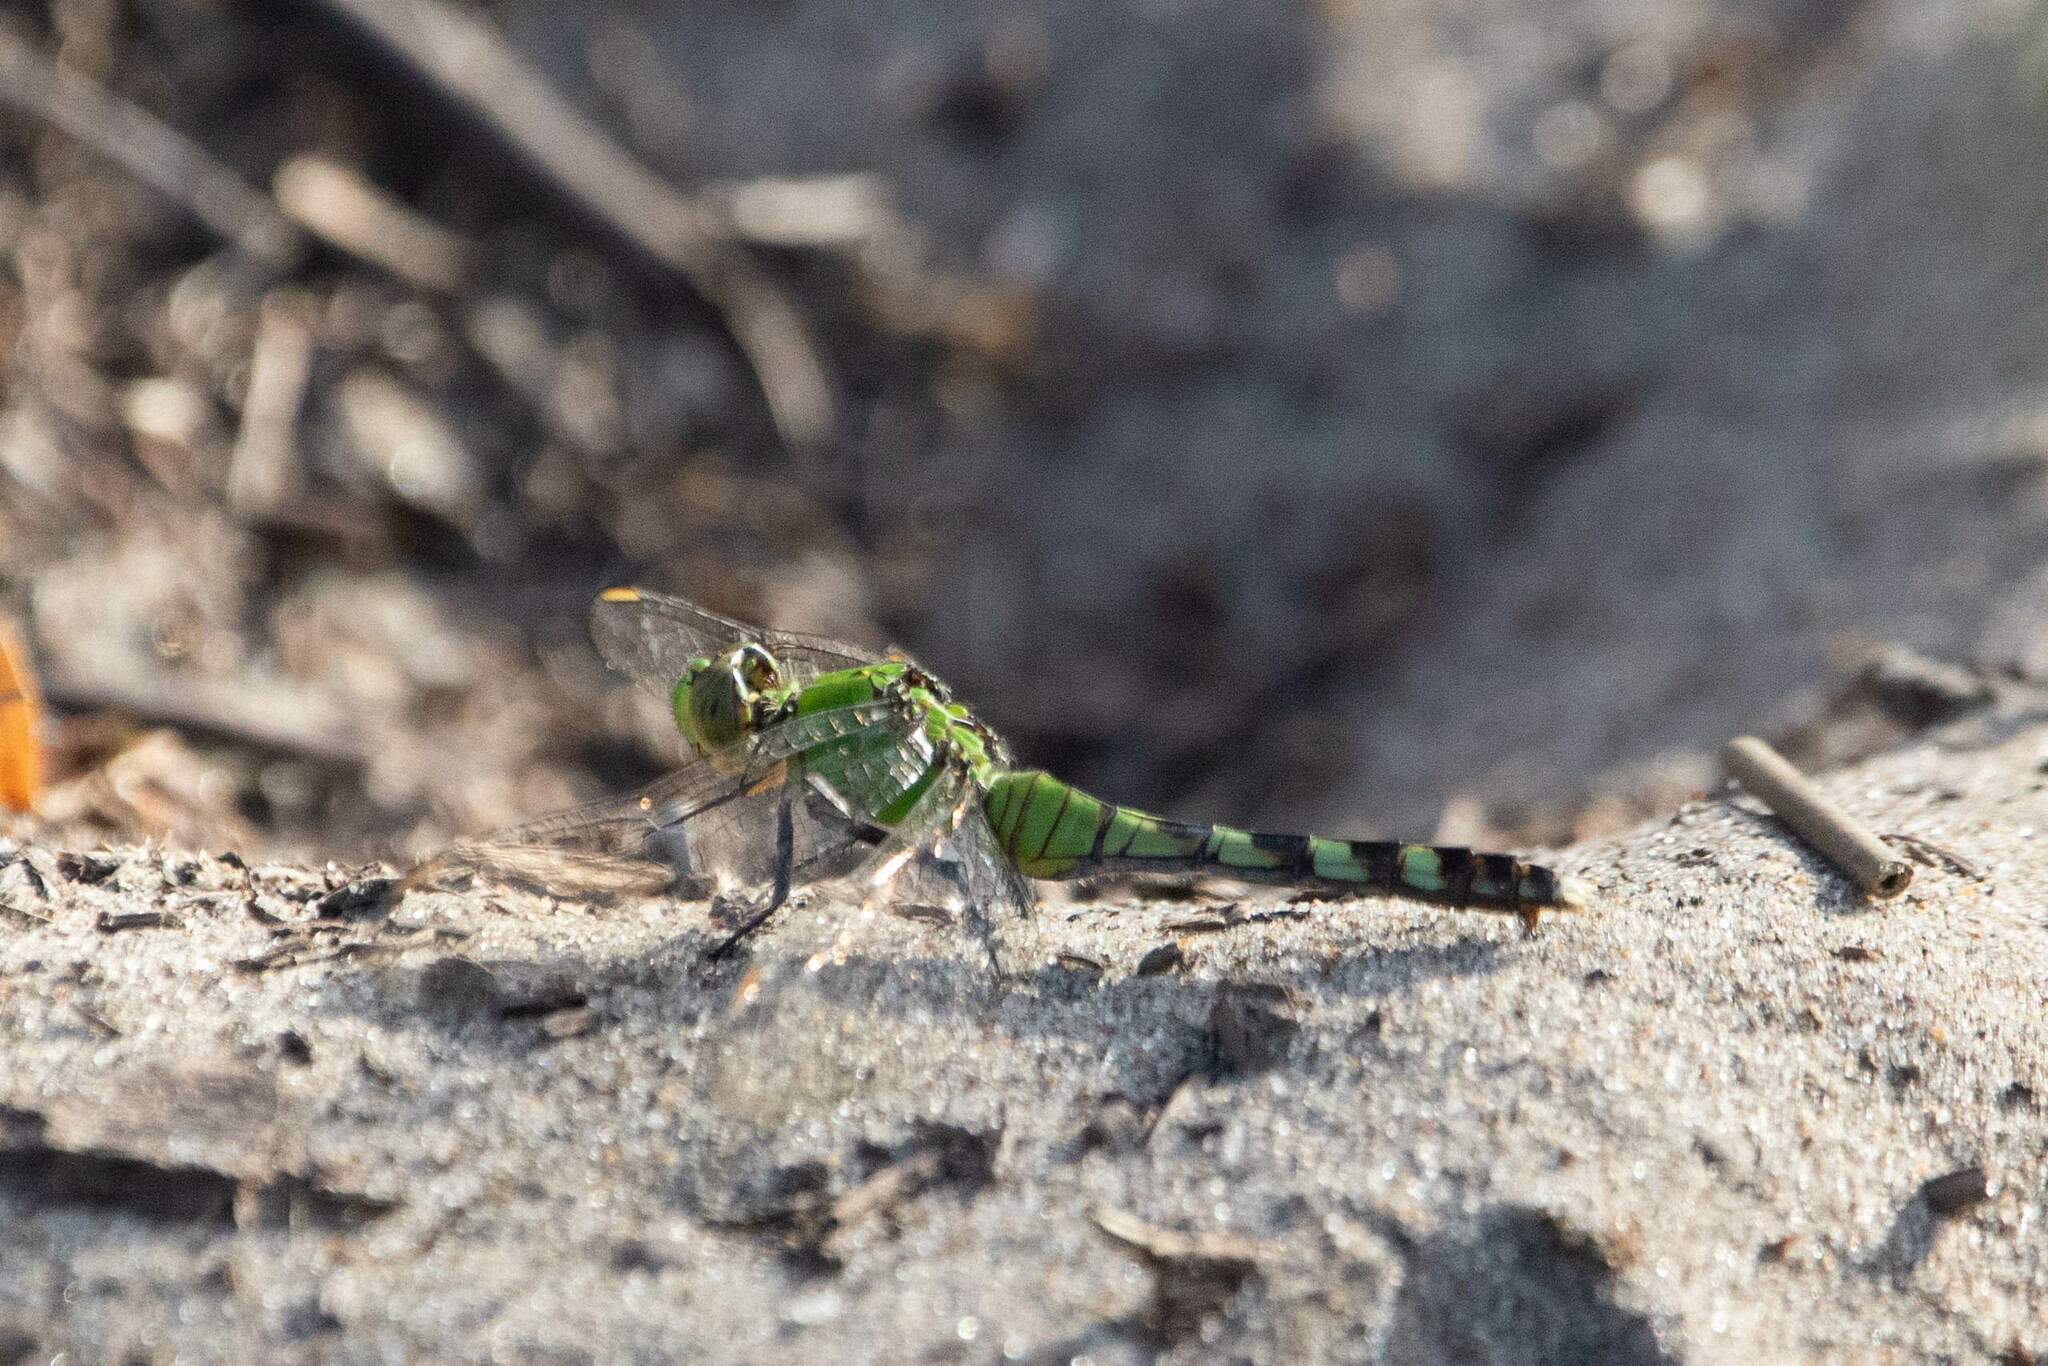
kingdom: Animalia
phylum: Arthropoda
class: Insecta
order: Odonata
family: Libellulidae
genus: Erythemis
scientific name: Erythemis simplicicollis
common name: Eastern pondhawk
